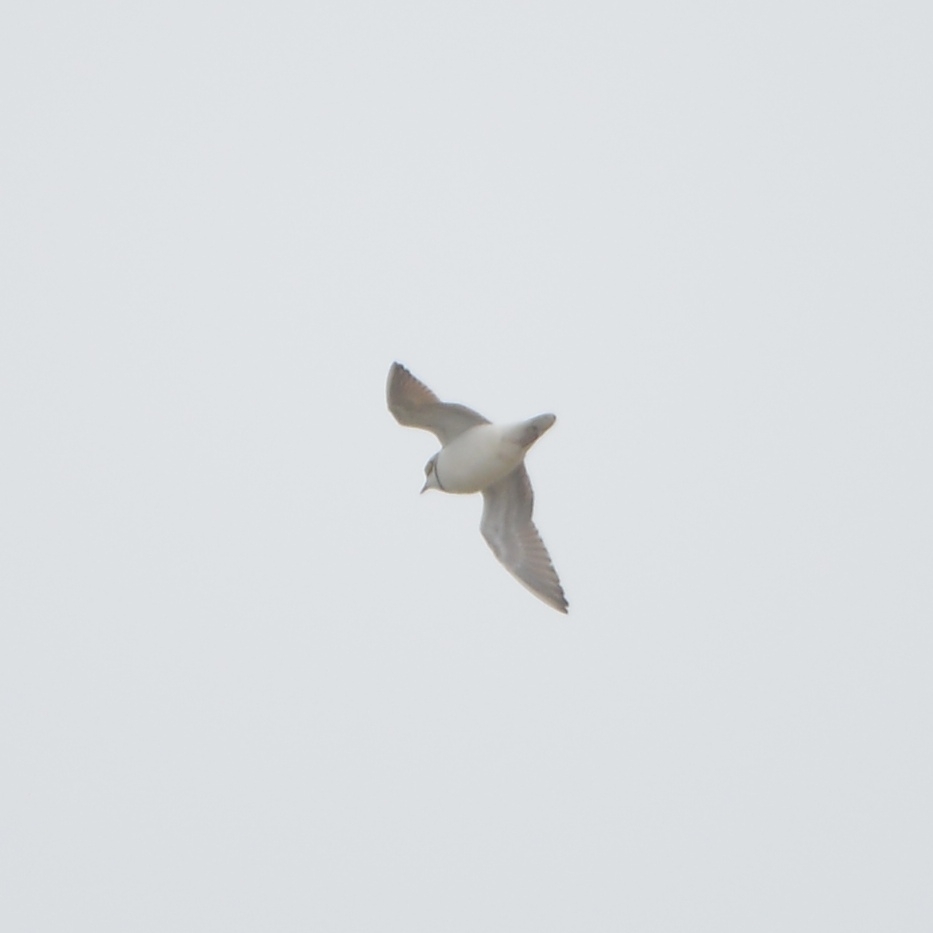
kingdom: Animalia
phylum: Chordata
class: Aves
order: Charadriiformes
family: Charadriidae
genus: Charadrius
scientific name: Charadrius dubius
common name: Little ringed plover
